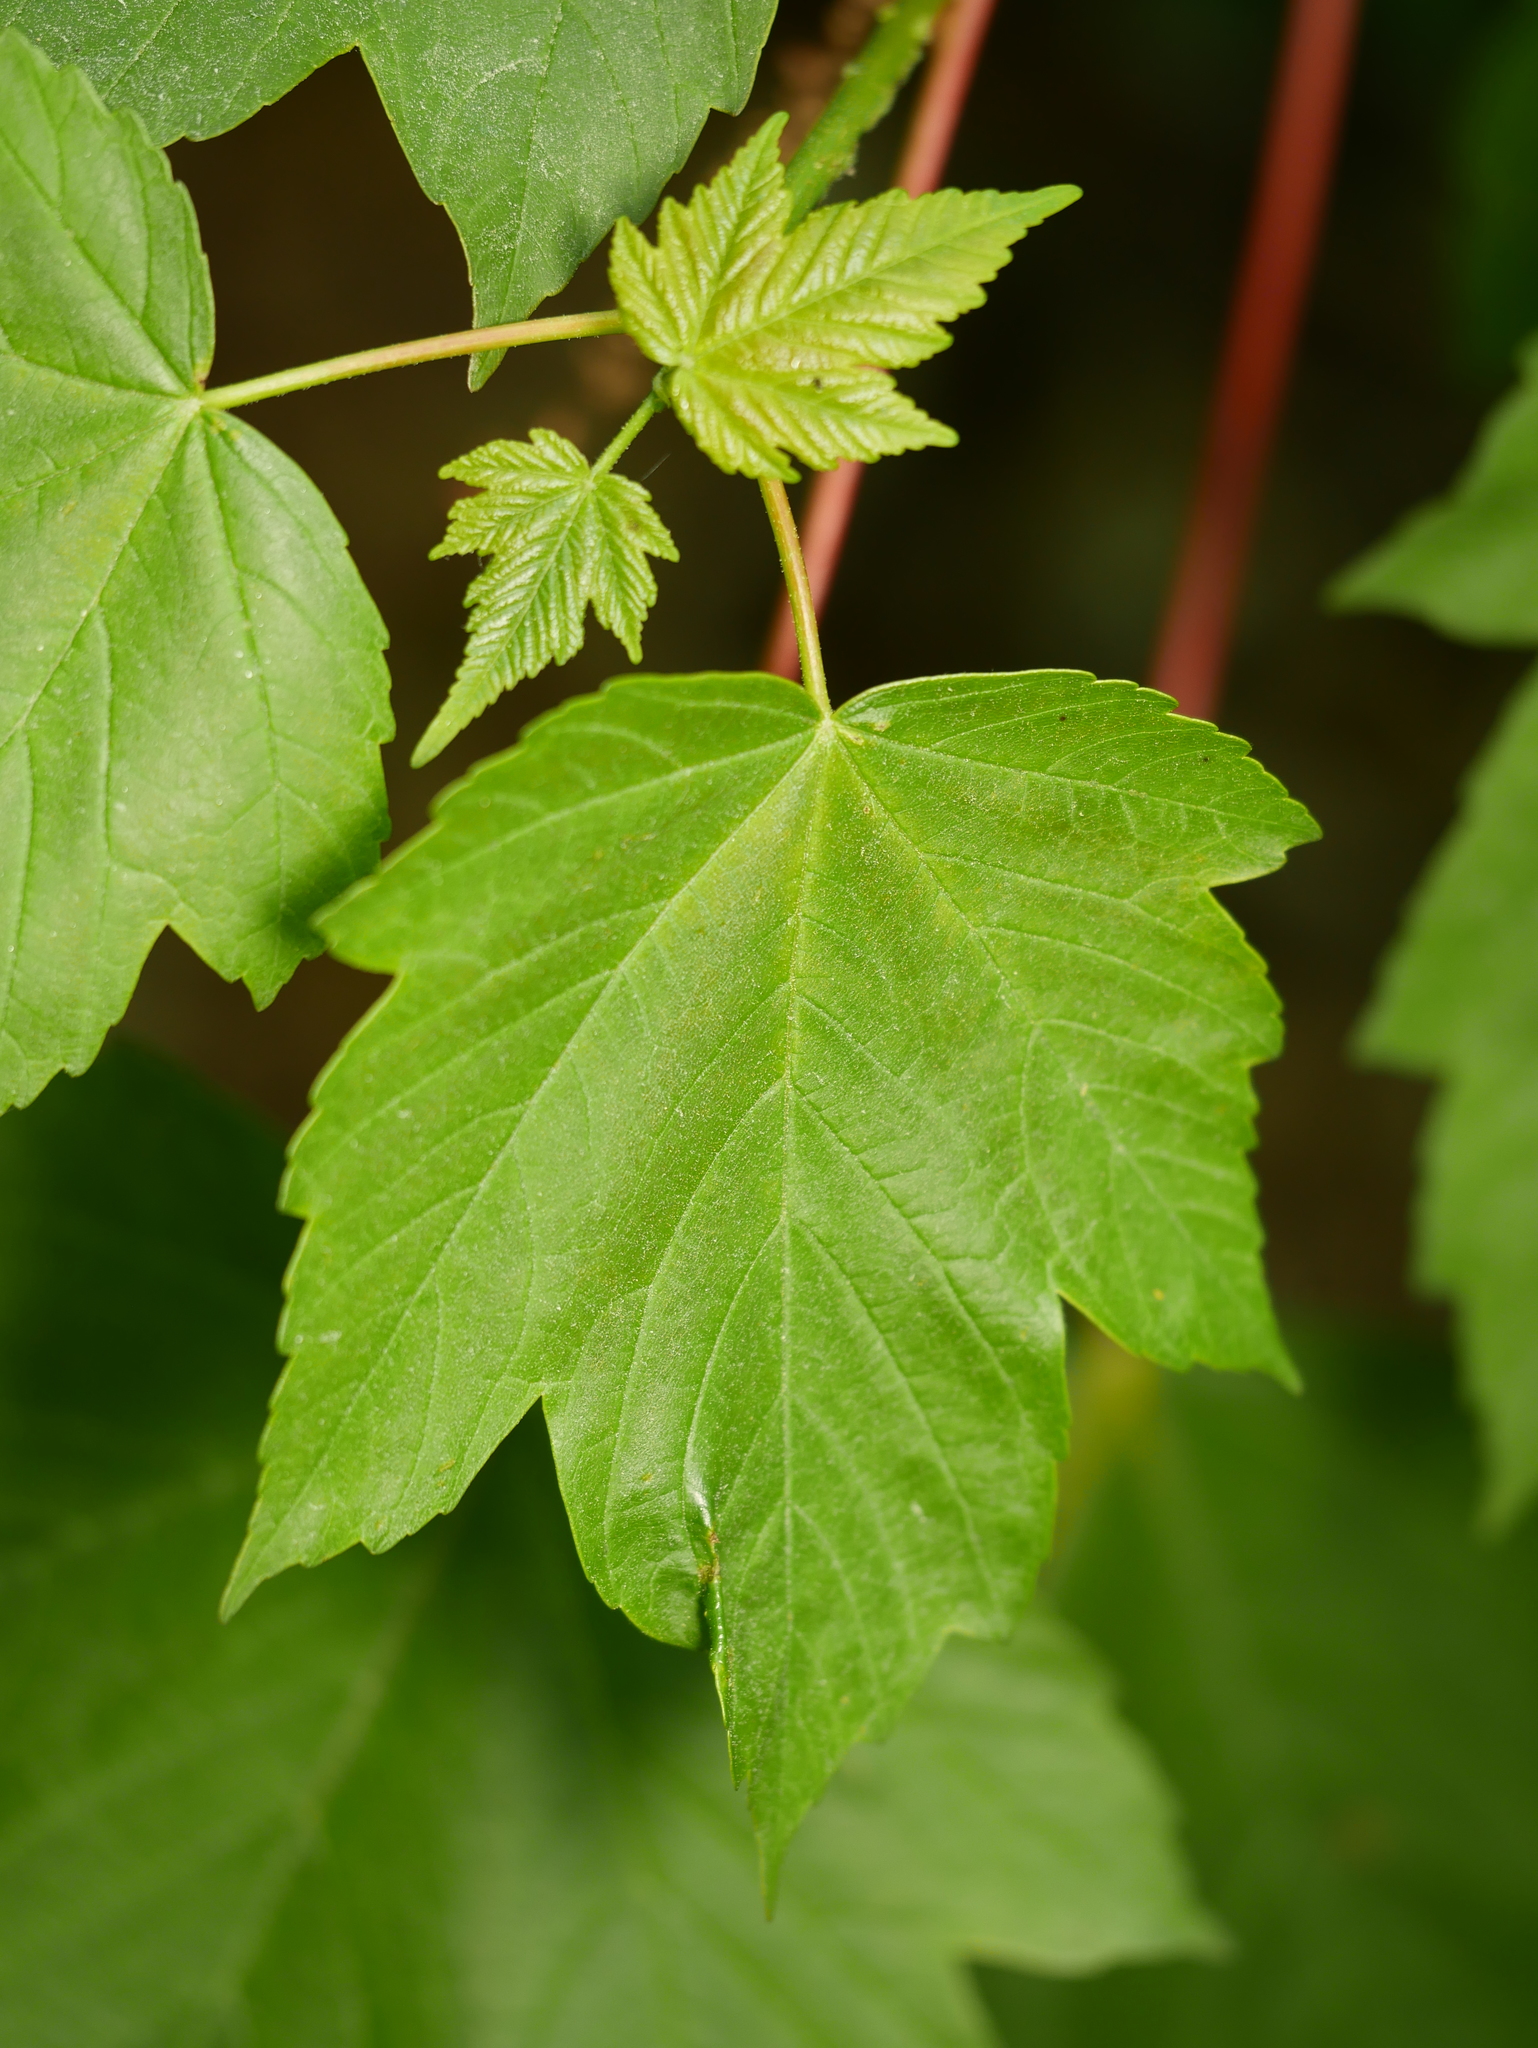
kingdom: Plantae
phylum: Tracheophyta
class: Magnoliopsida
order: Sapindales
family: Sapindaceae
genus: Acer
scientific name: Acer pseudoplatanus
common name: Sycamore
